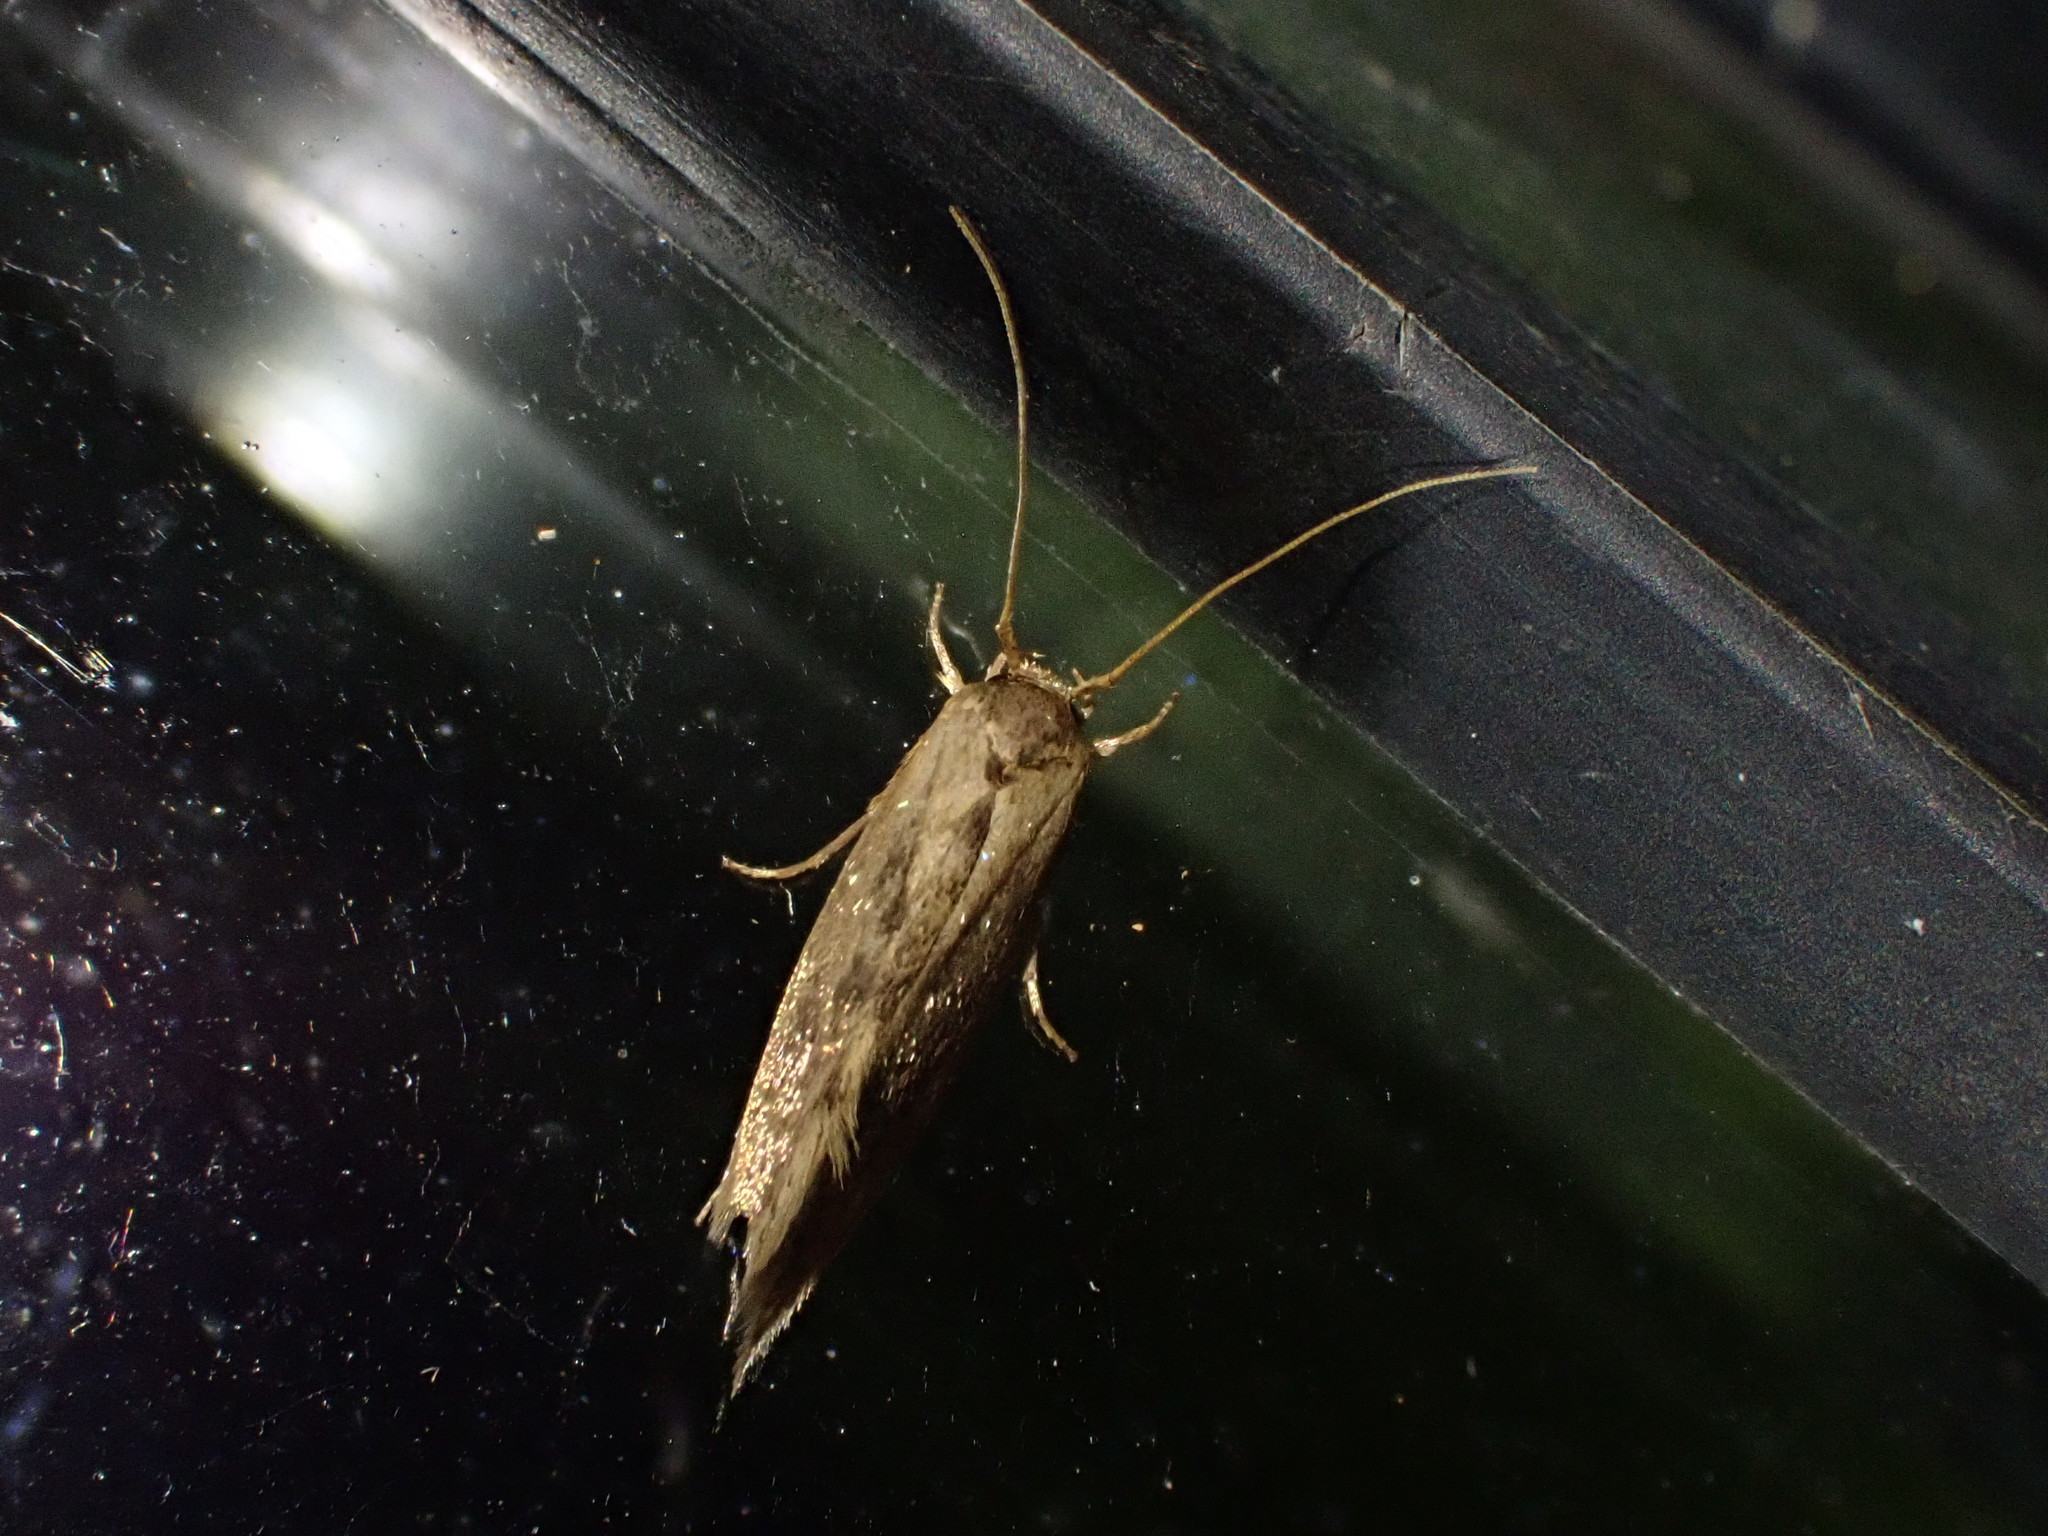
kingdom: Animalia
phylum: Arthropoda
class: Insecta
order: Lepidoptera
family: Tineidae
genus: Opogona
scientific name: Opogona omoscopa
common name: Moth
